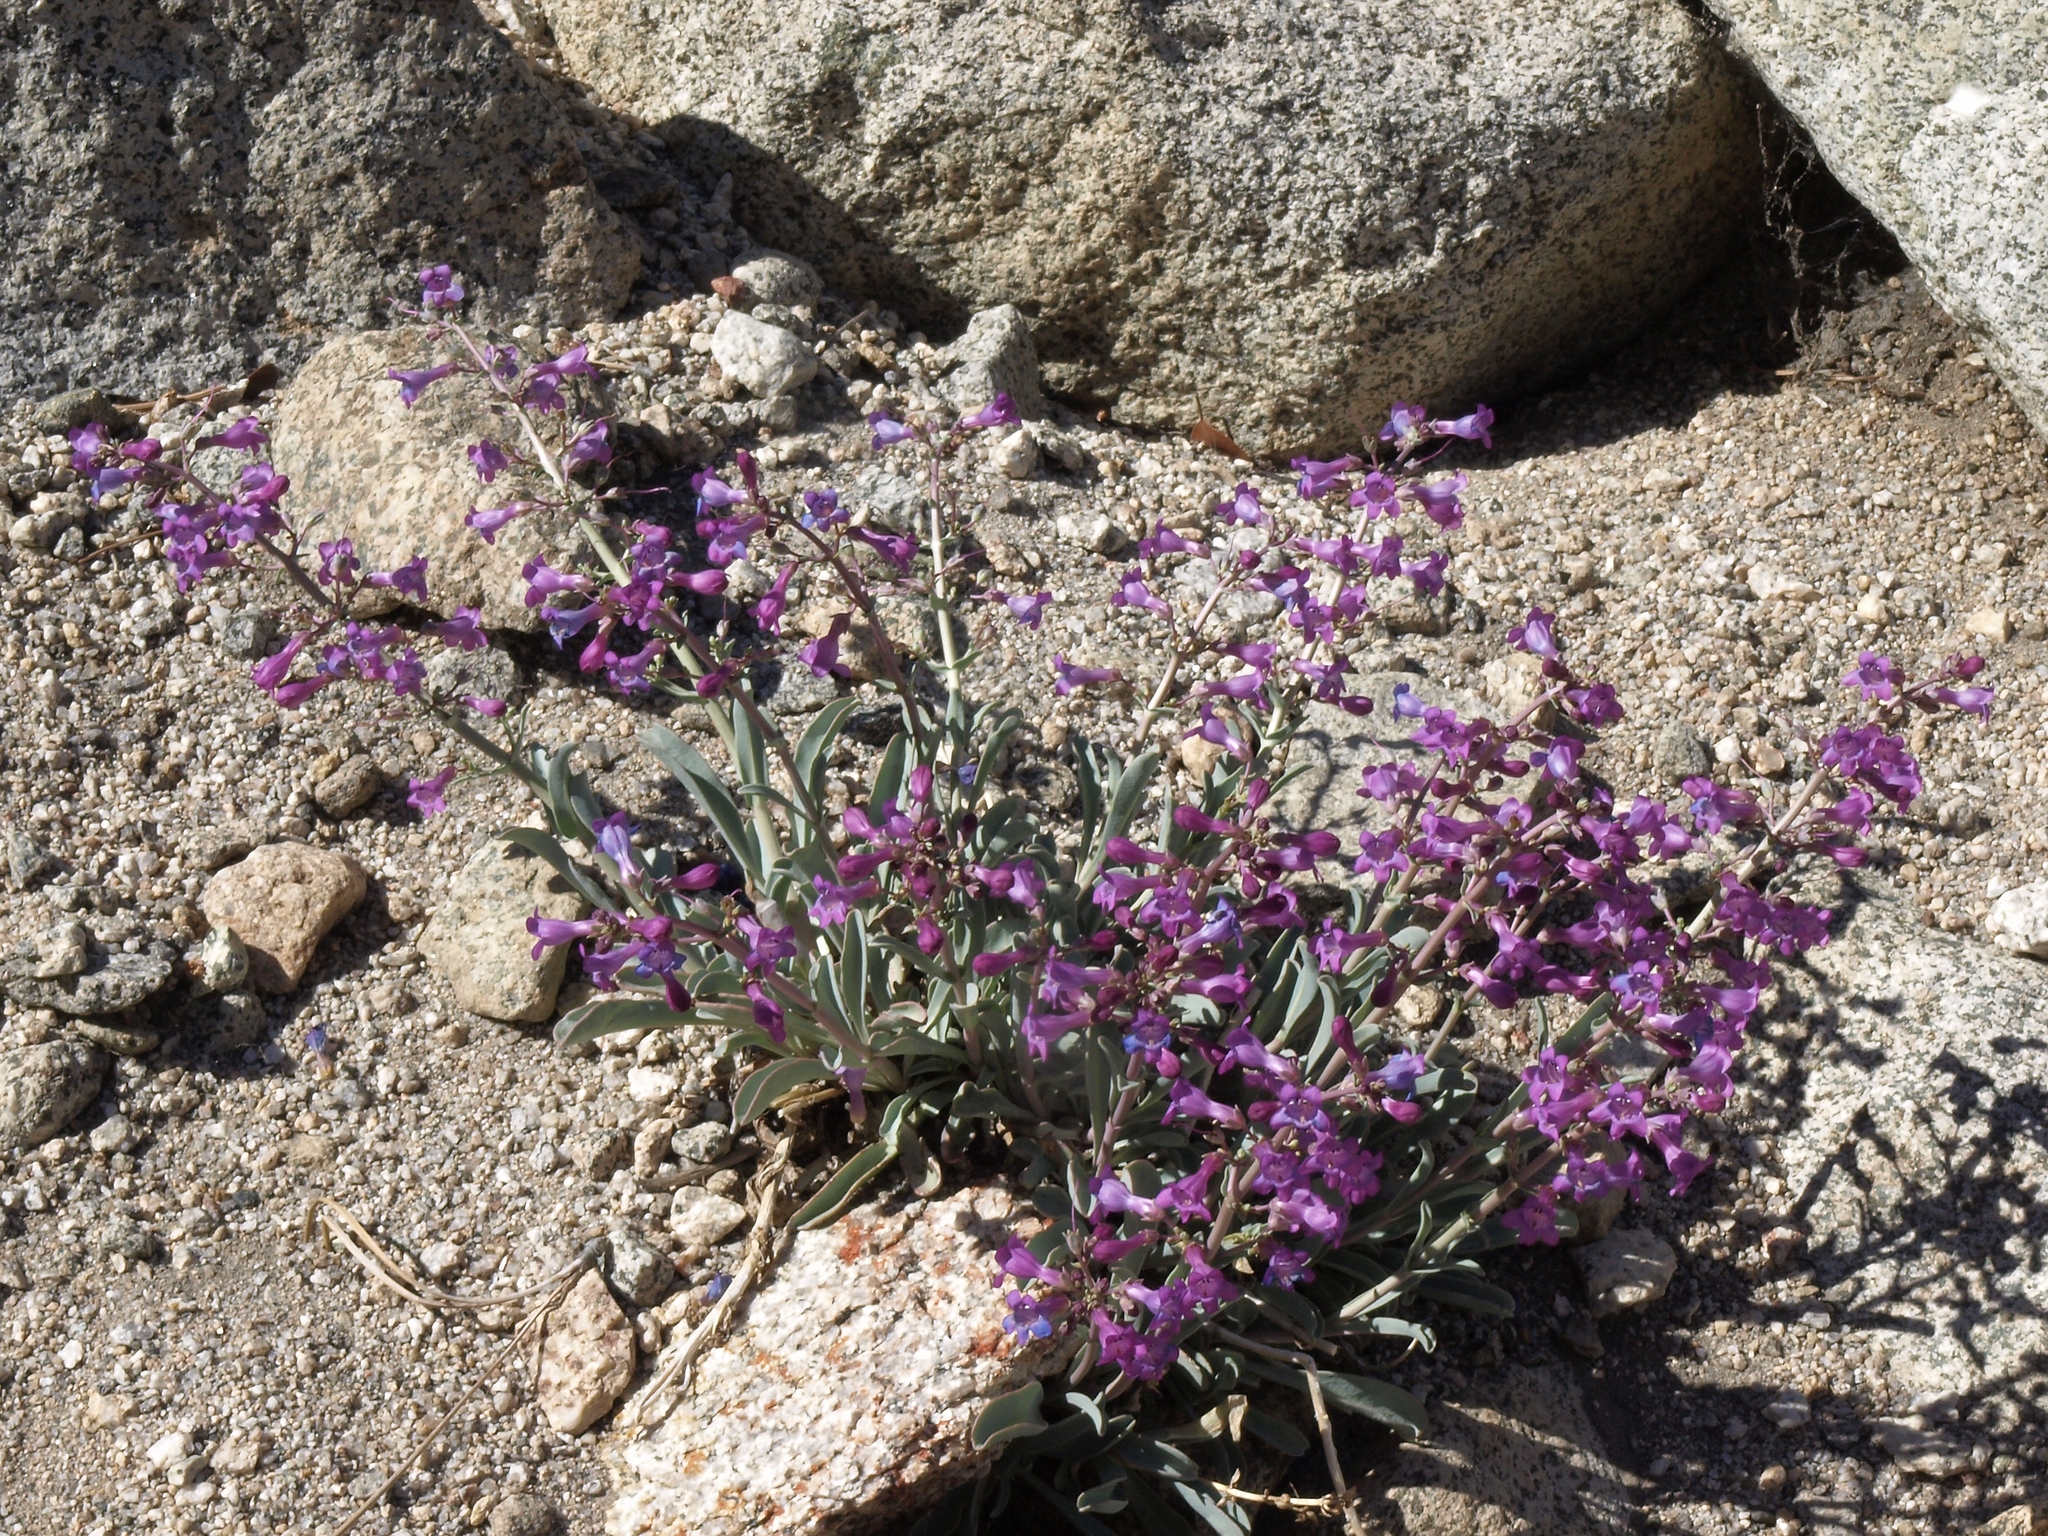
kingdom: Plantae
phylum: Tracheophyta
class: Magnoliopsida
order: Lamiales
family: Plantaginaceae
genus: Penstemon
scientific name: Penstemon patens
